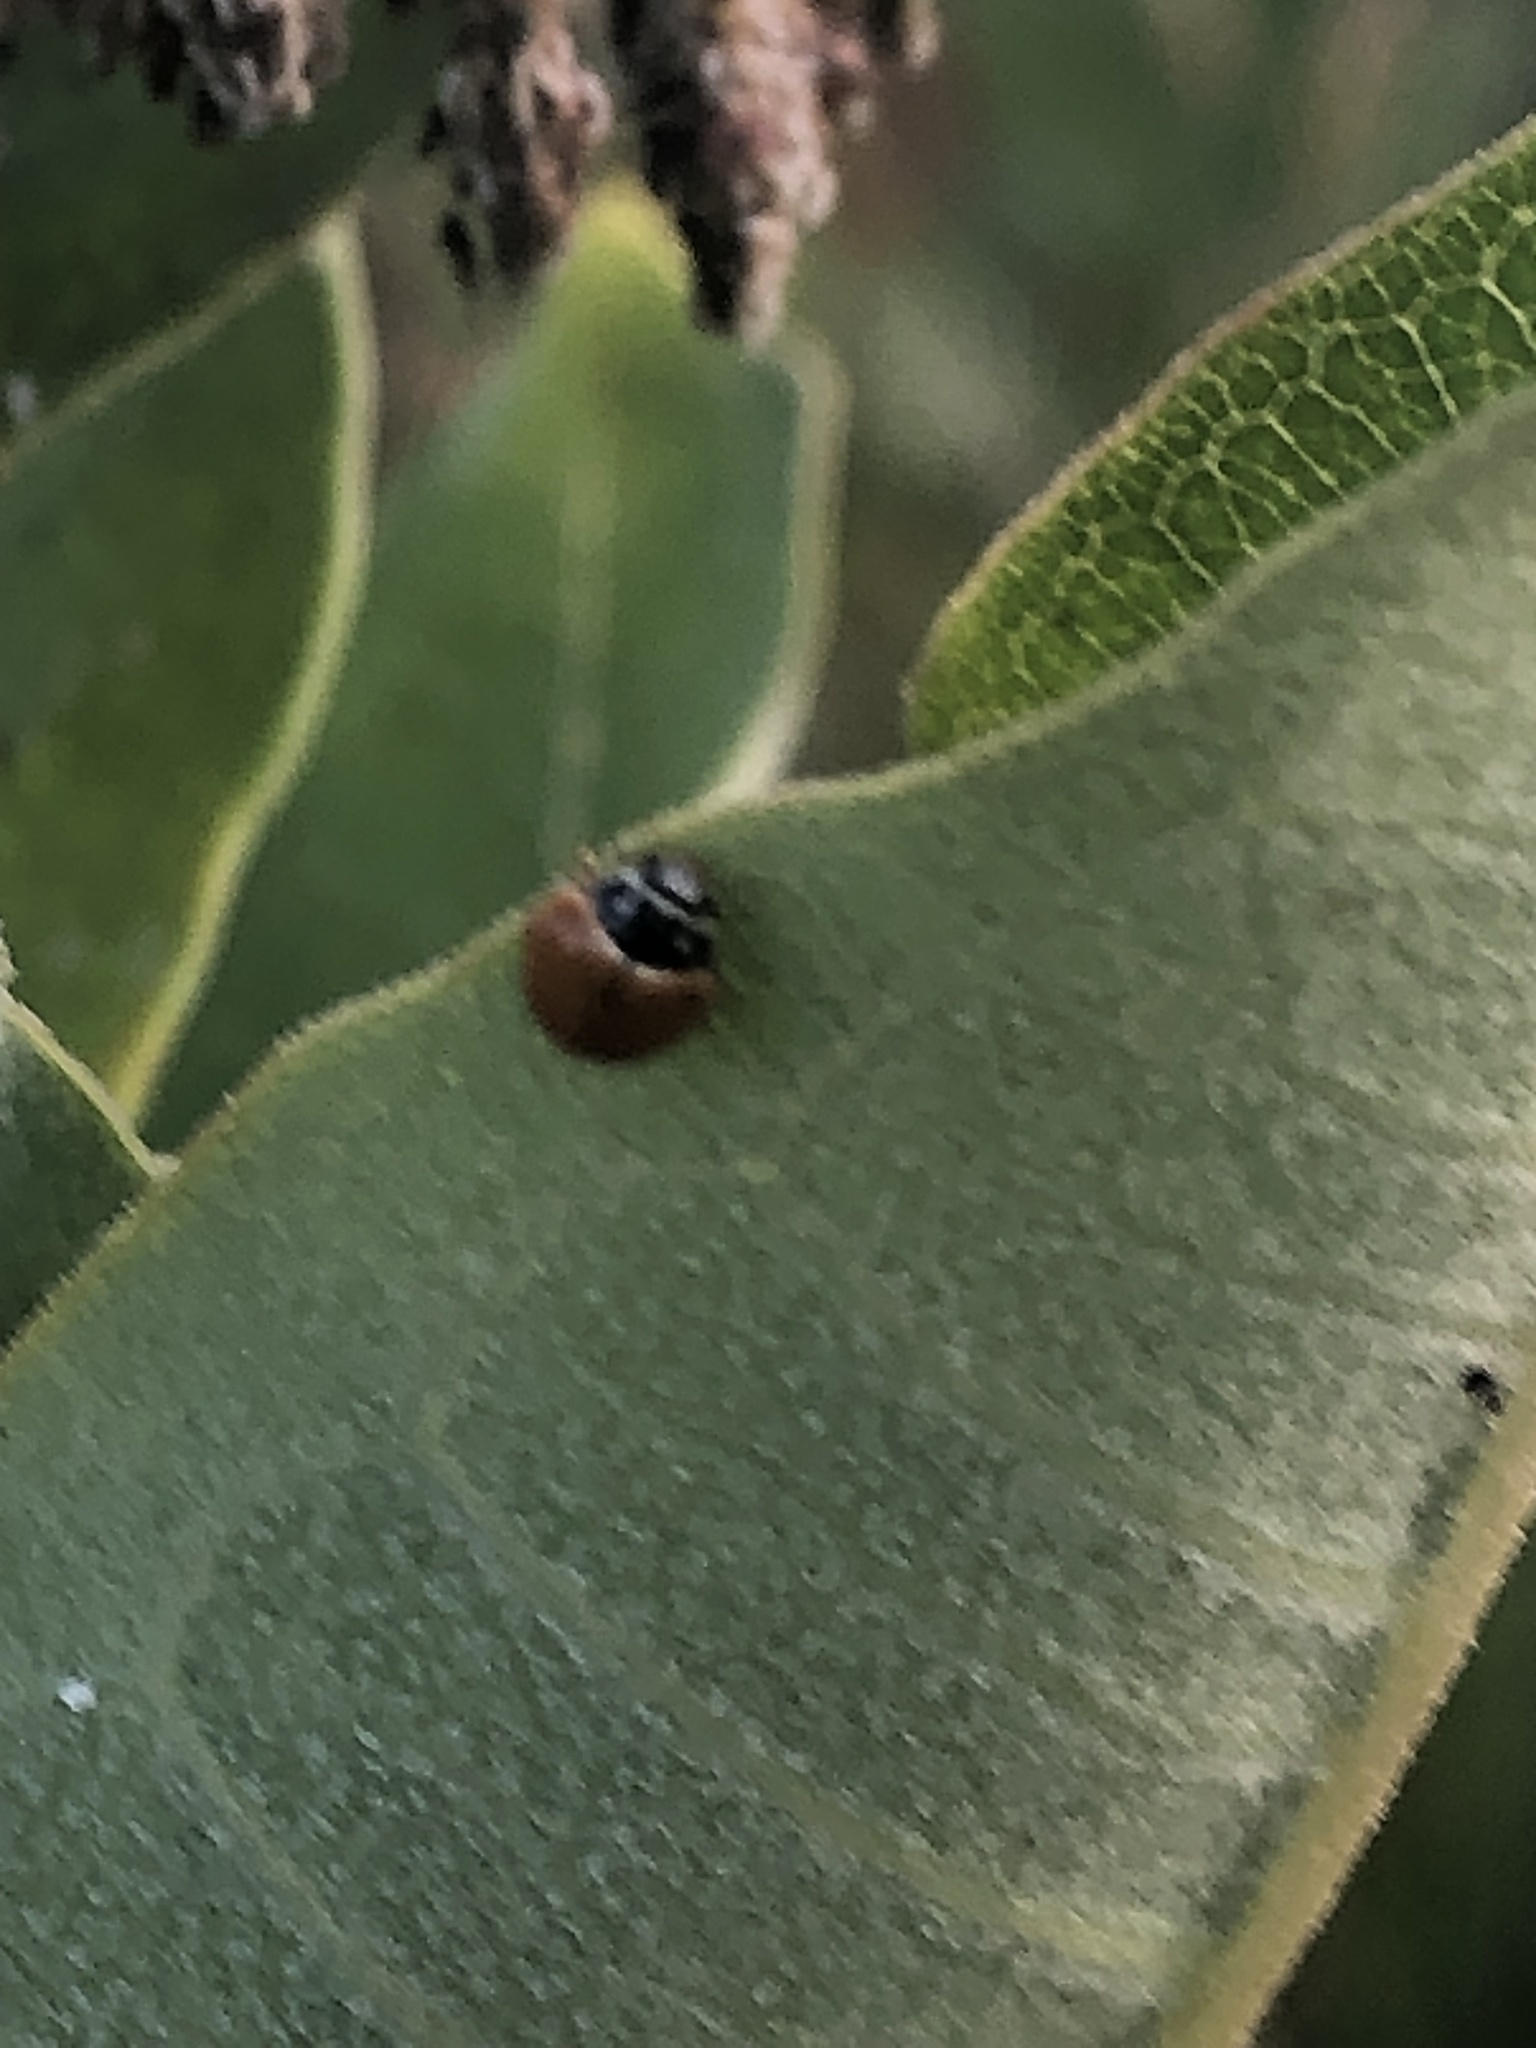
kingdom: Animalia
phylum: Arthropoda
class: Insecta
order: Coleoptera
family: Coccinellidae
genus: Cycloneda
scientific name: Cycloneda munda
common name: Polished lady beetle
